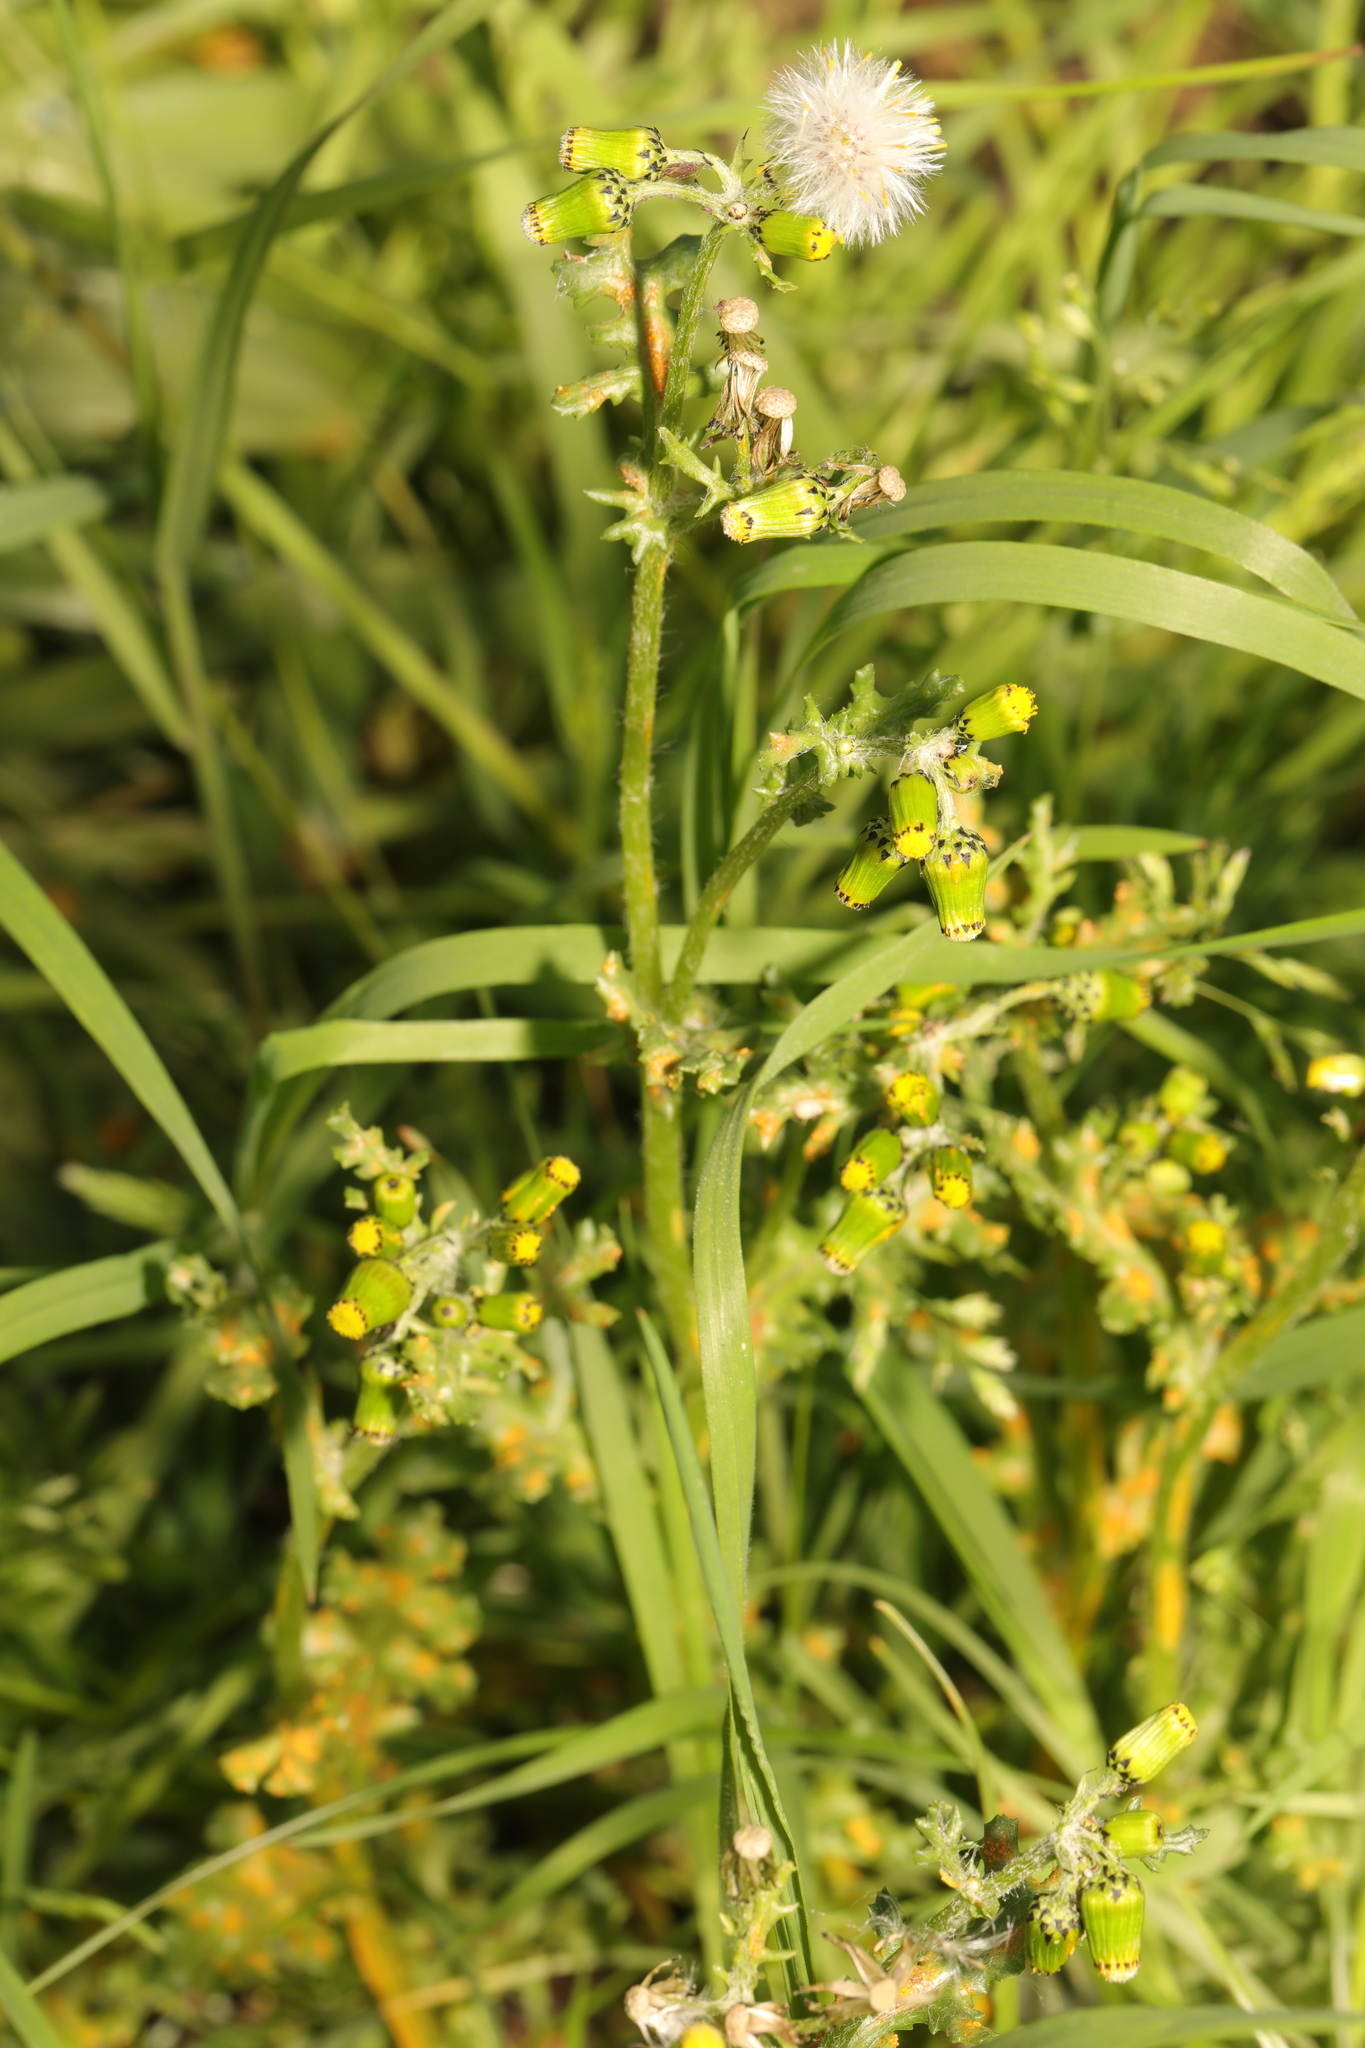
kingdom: Plantae
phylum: Tracheophyta
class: Magnoliopsida
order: Asterales
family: Asteraceae
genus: Senecio
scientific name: Senecio vulgaris
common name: Old-man-in-the-spring
